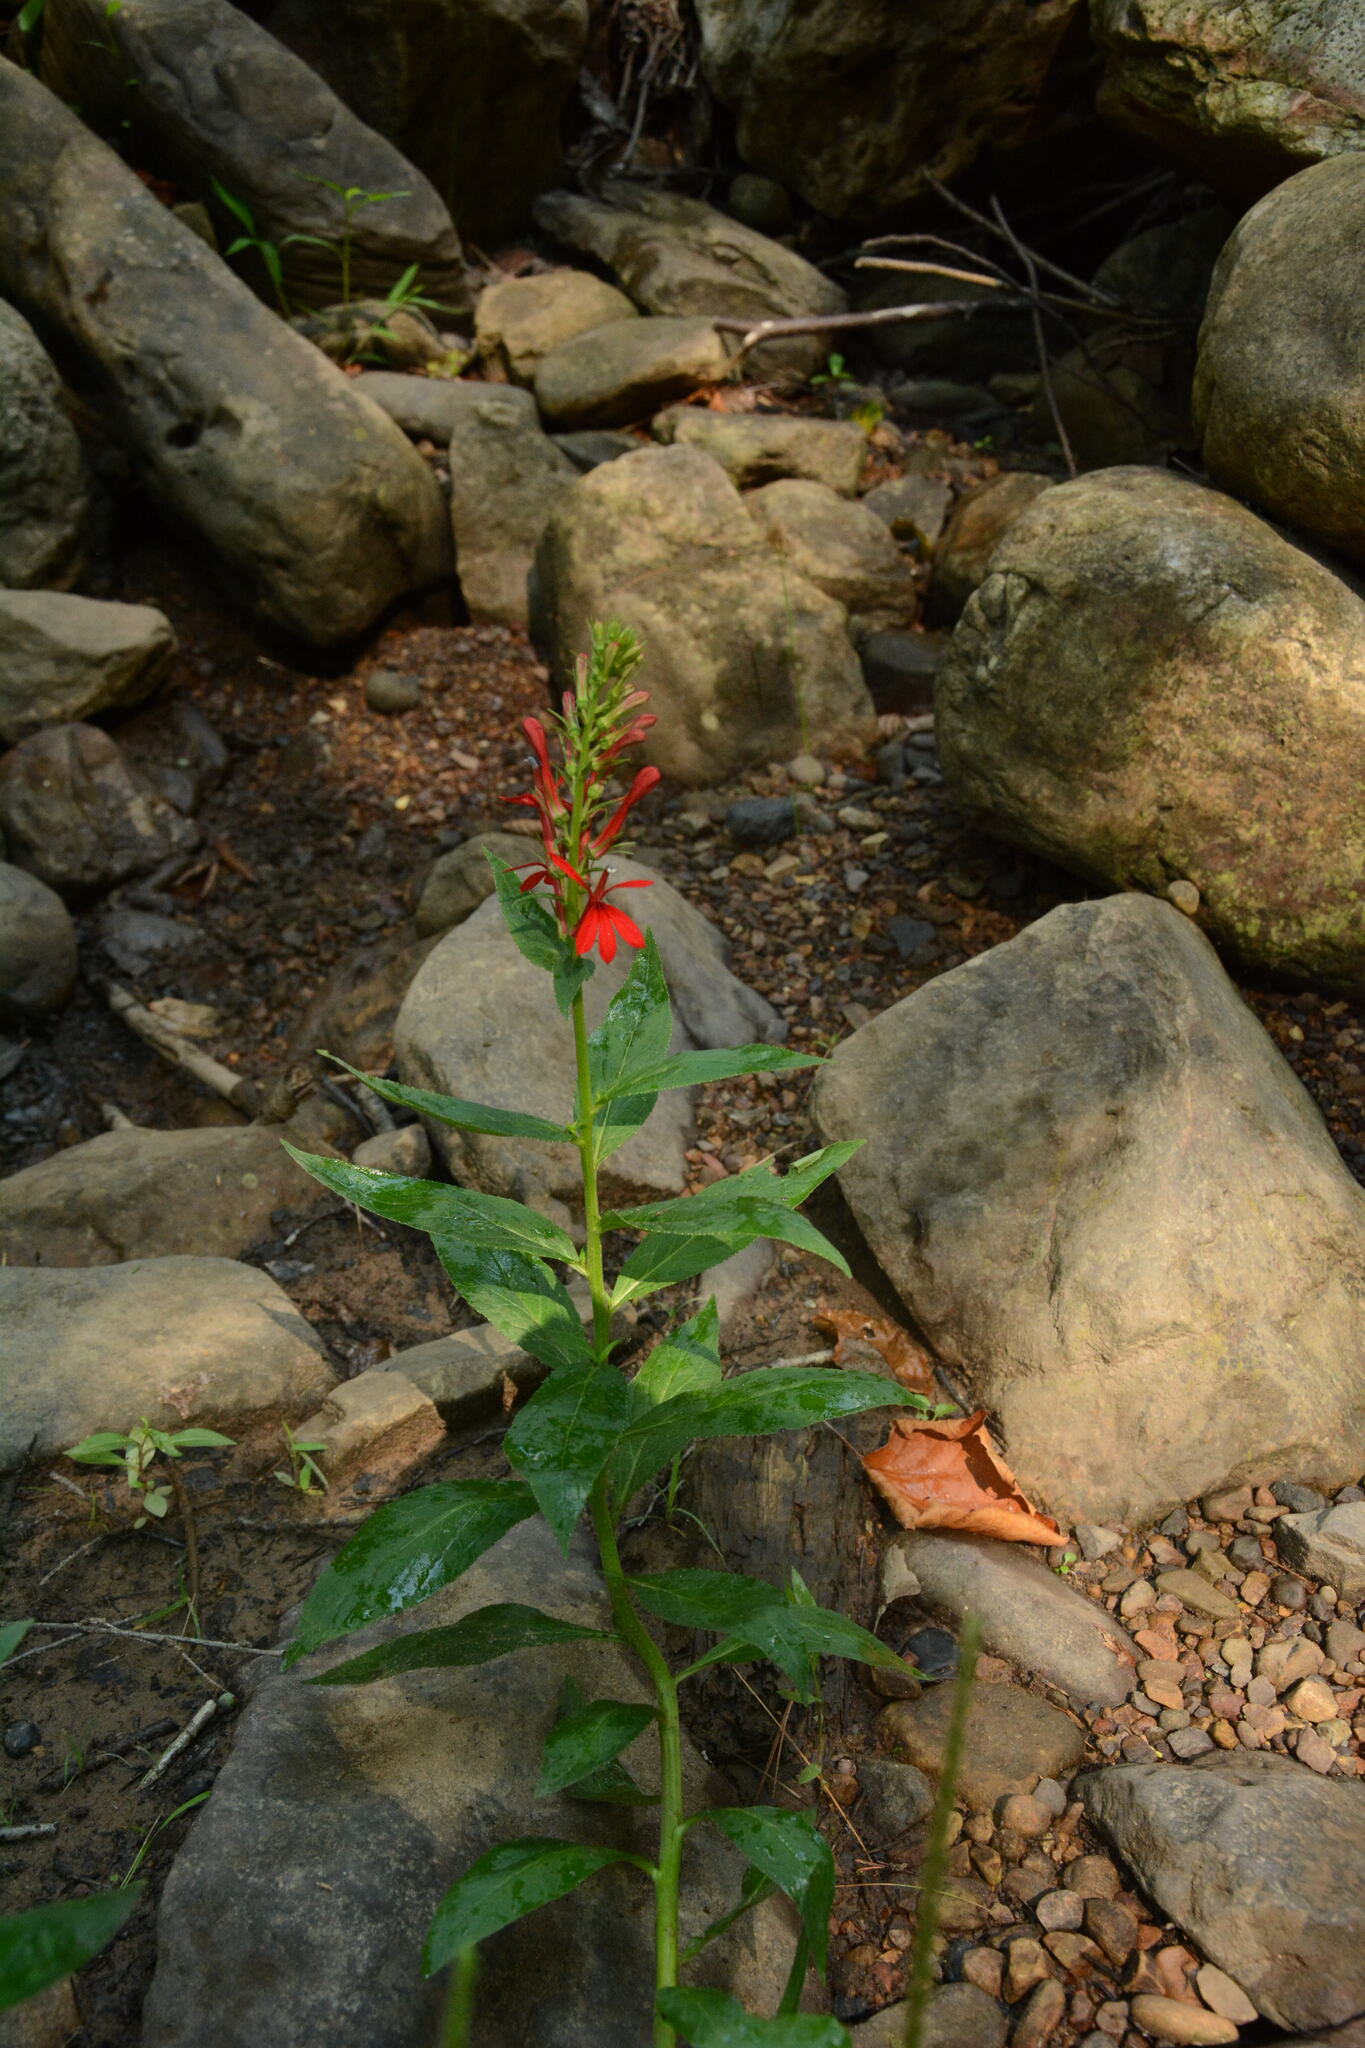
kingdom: Plantae
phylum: Tracheophyta
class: Magnoliopsida
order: Asterales
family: Campanulaceae
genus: Lobelia
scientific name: Lobelia cardinalis
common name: Cardinal flower
